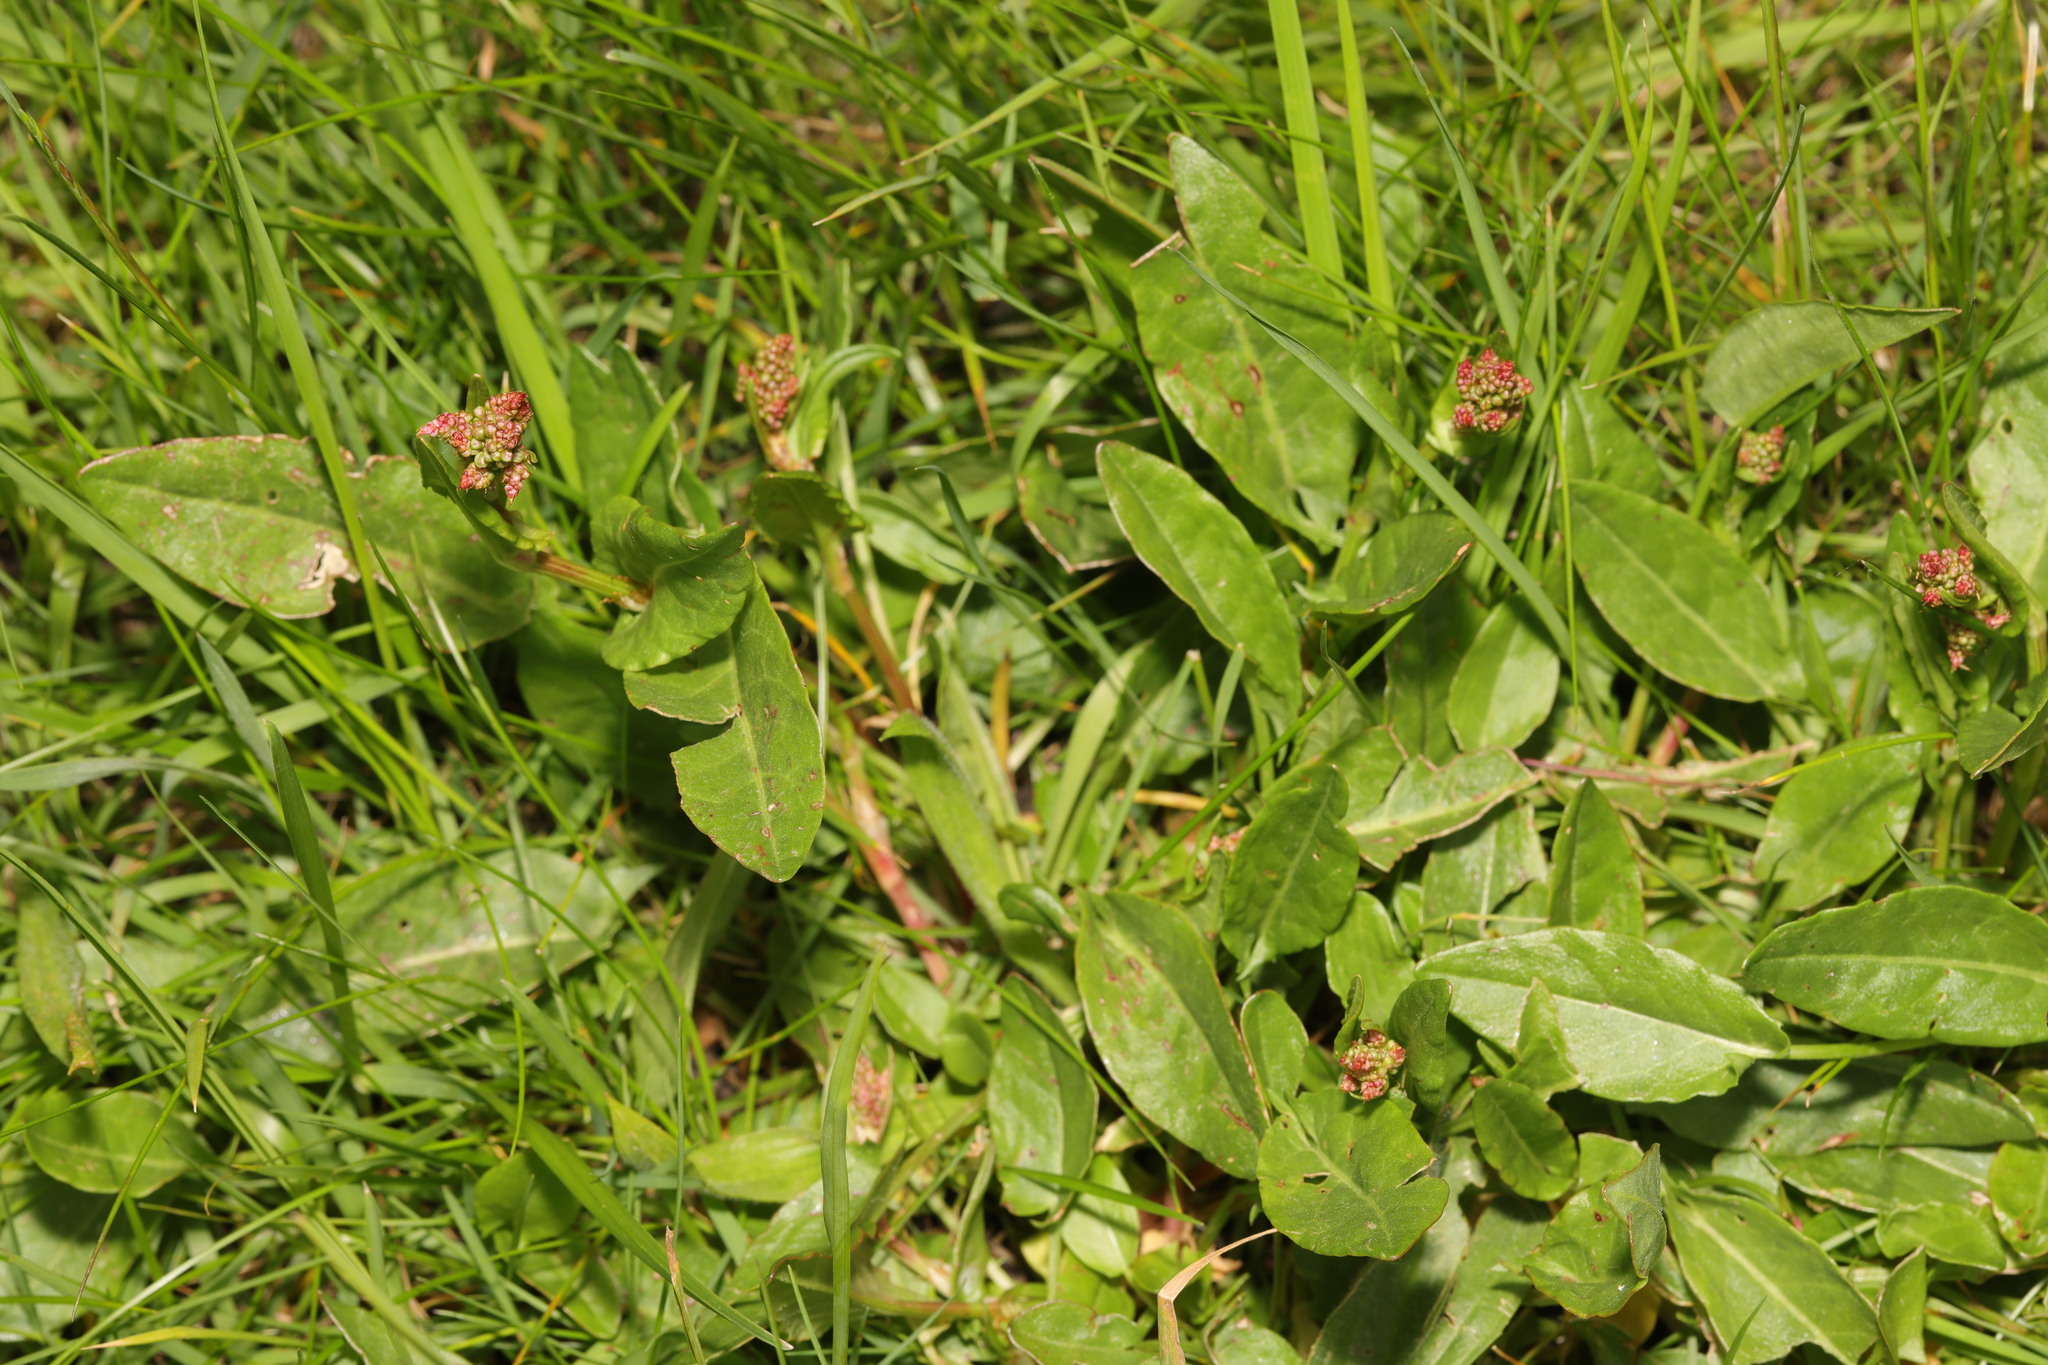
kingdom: Plantae
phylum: Tracheophyta
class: Magnoliopsida
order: Caryophyllales
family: Polygonaceae
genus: Rumex
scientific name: Rumex acetosa
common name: Garden sorrel
